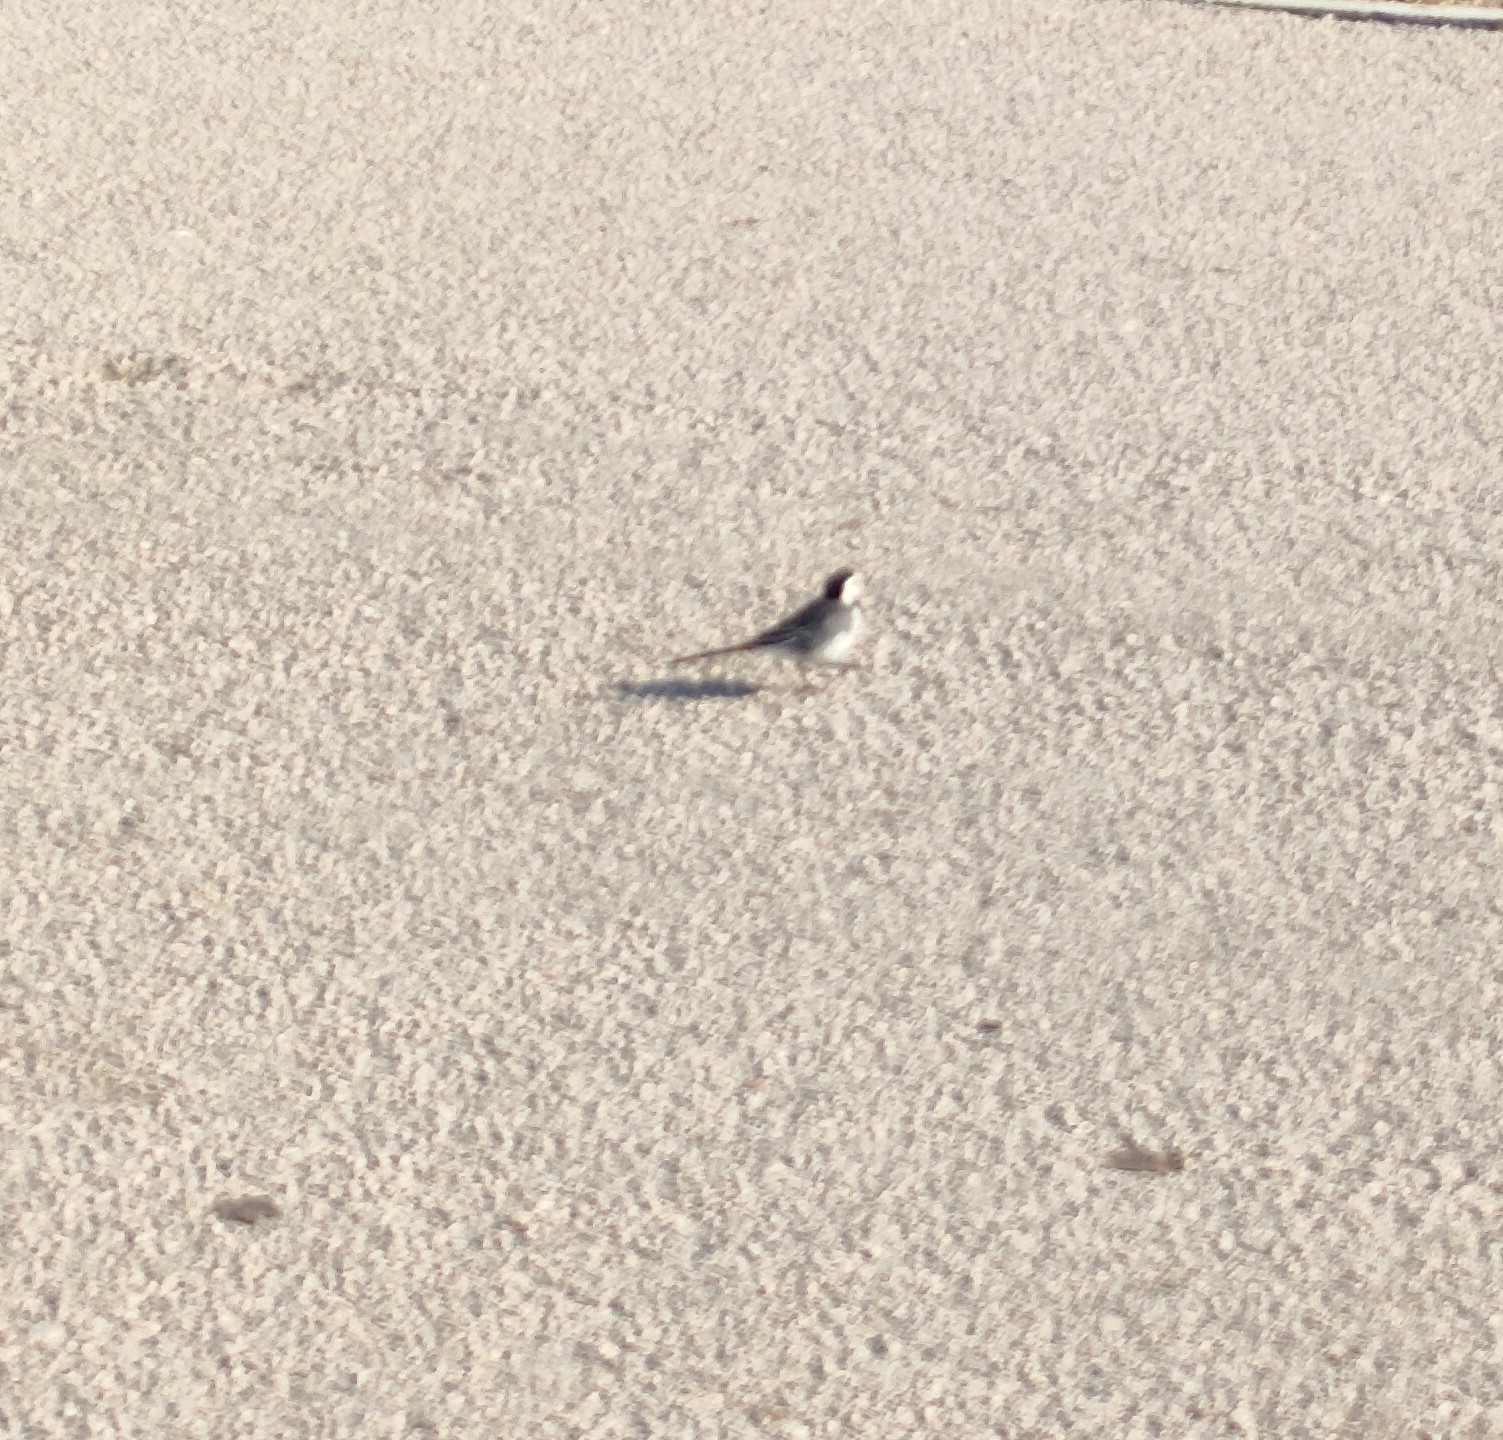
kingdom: Animalia
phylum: Chordata
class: Aves
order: Passeriformes
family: Motacillidae
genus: Motacilla
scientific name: Motacilla alba
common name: White wagtail
